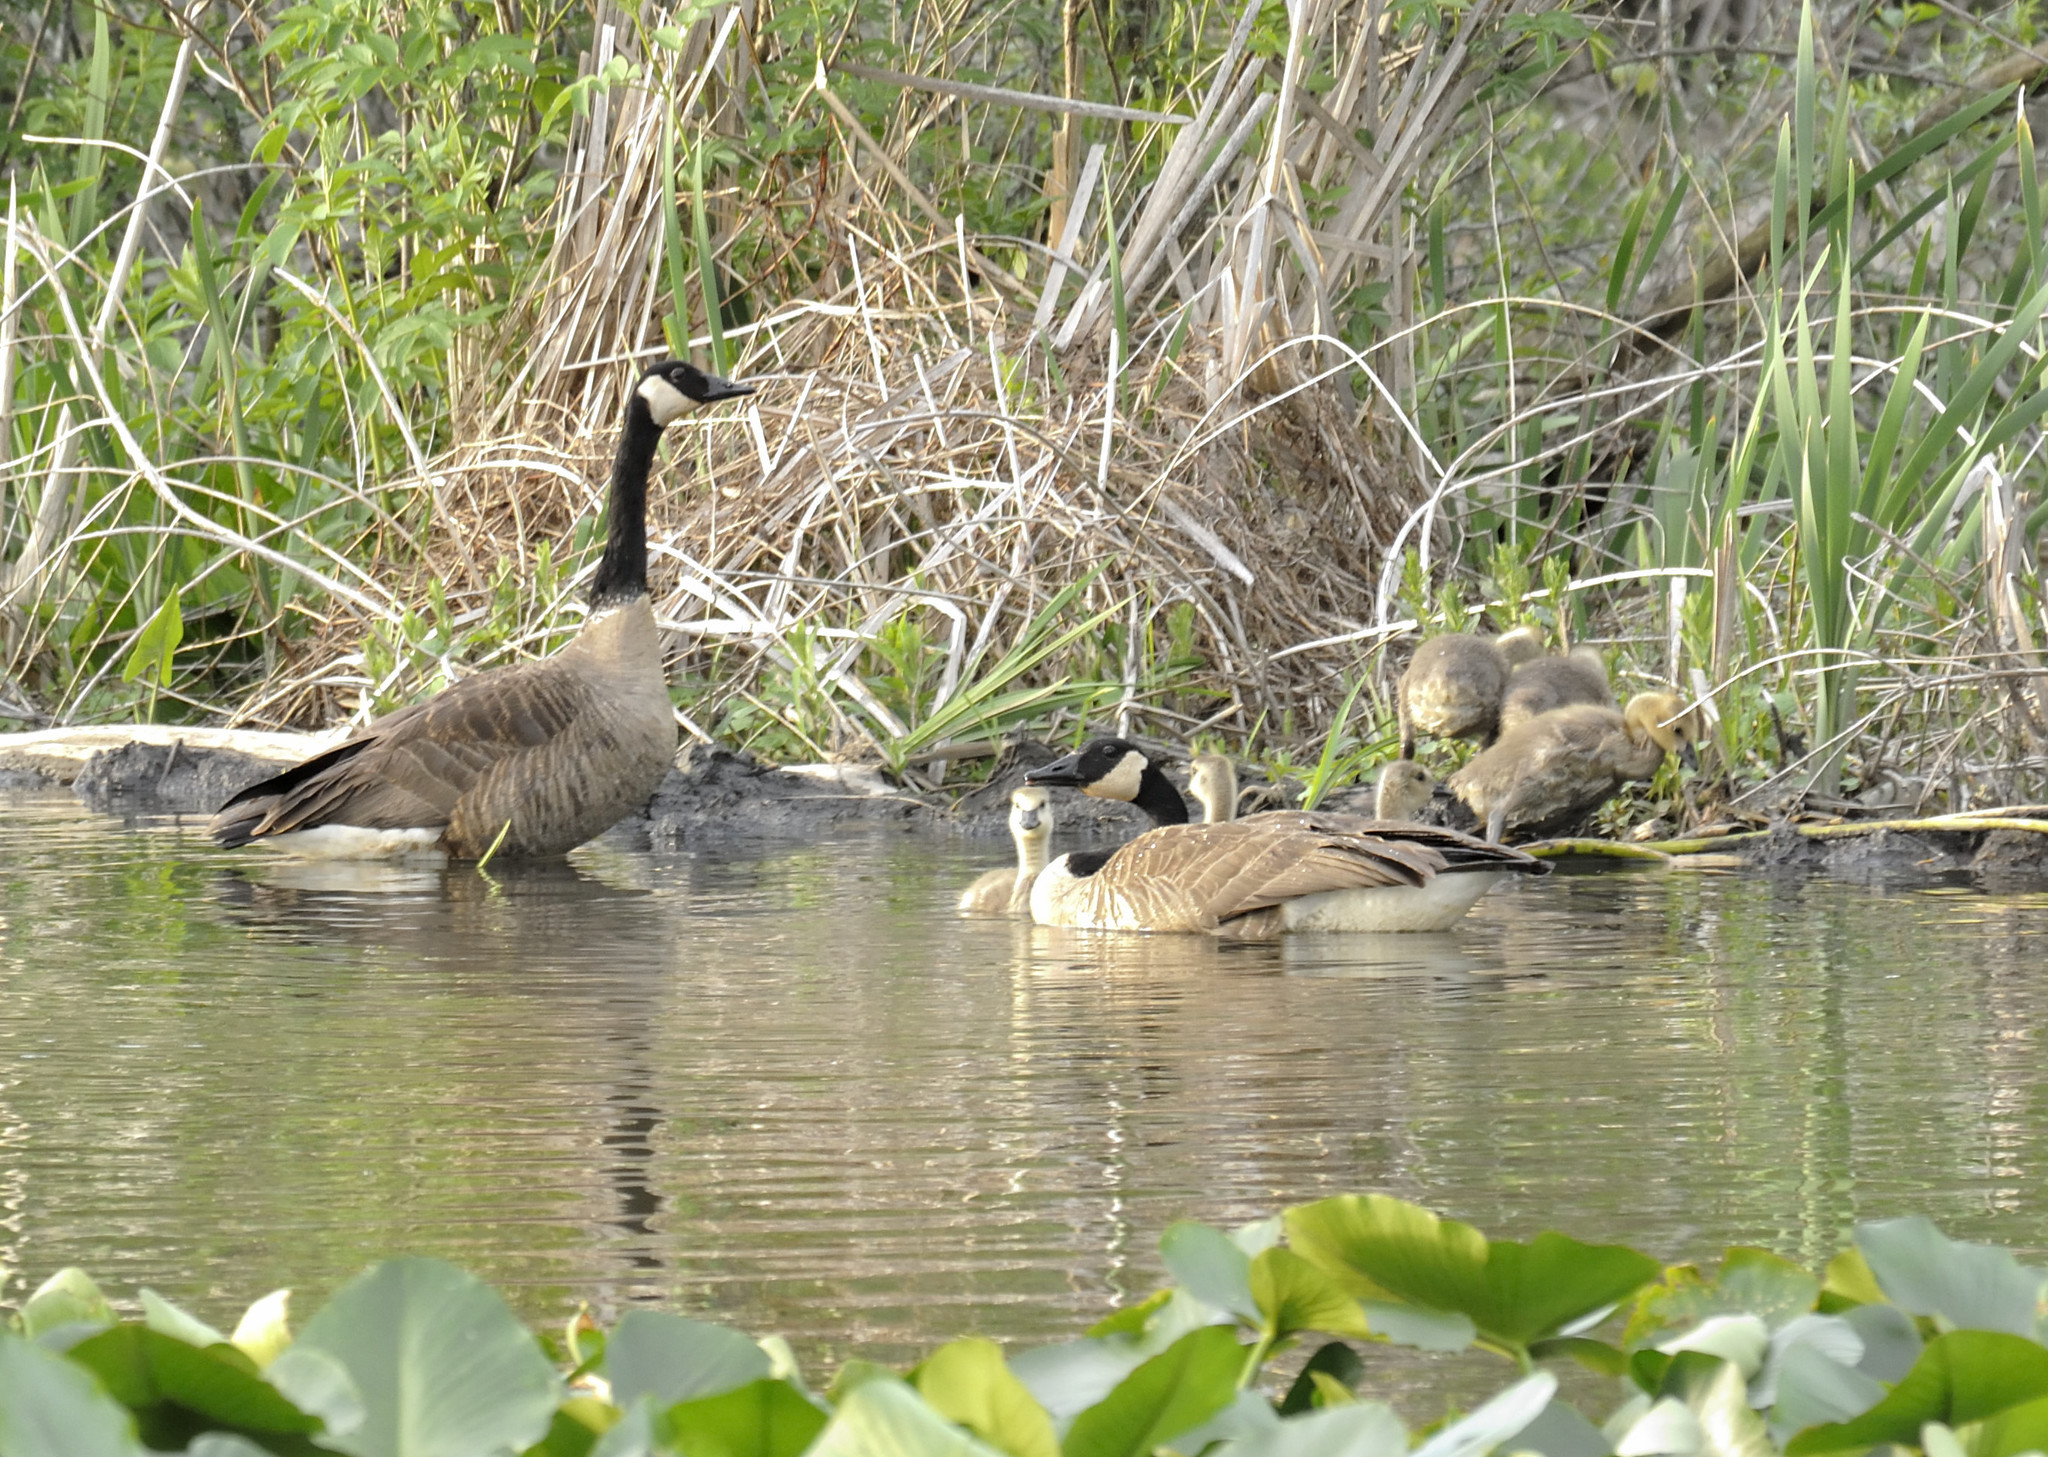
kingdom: Animalia
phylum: Chordata
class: Aves
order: Anseriformes
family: Anatidae
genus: Branta
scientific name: Branta canadensis
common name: Canada goose
